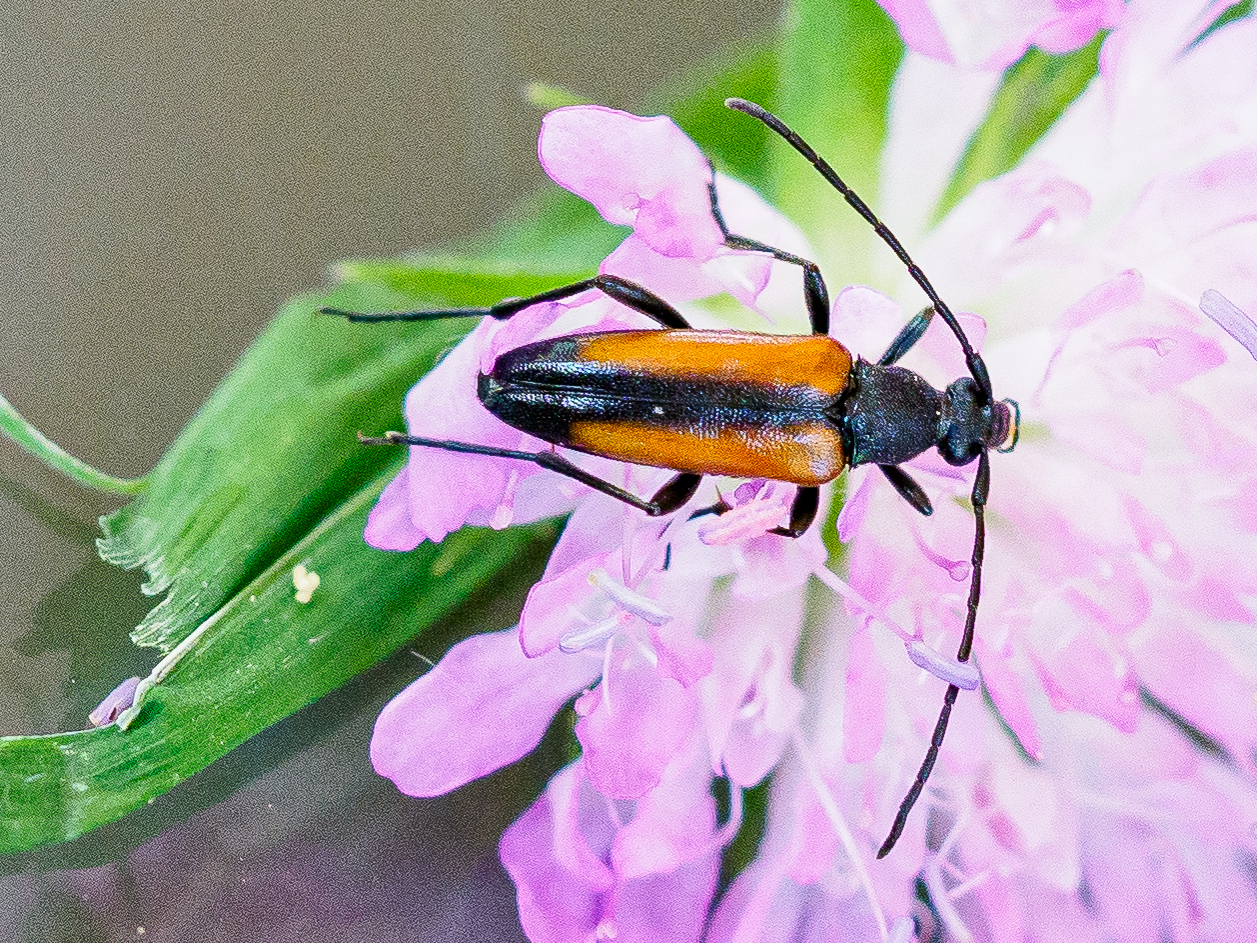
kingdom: Animalia
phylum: Arthropoda
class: Insecta
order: Coleoptera
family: Cerambycidae
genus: Stenurella
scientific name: Stenurella melanura
